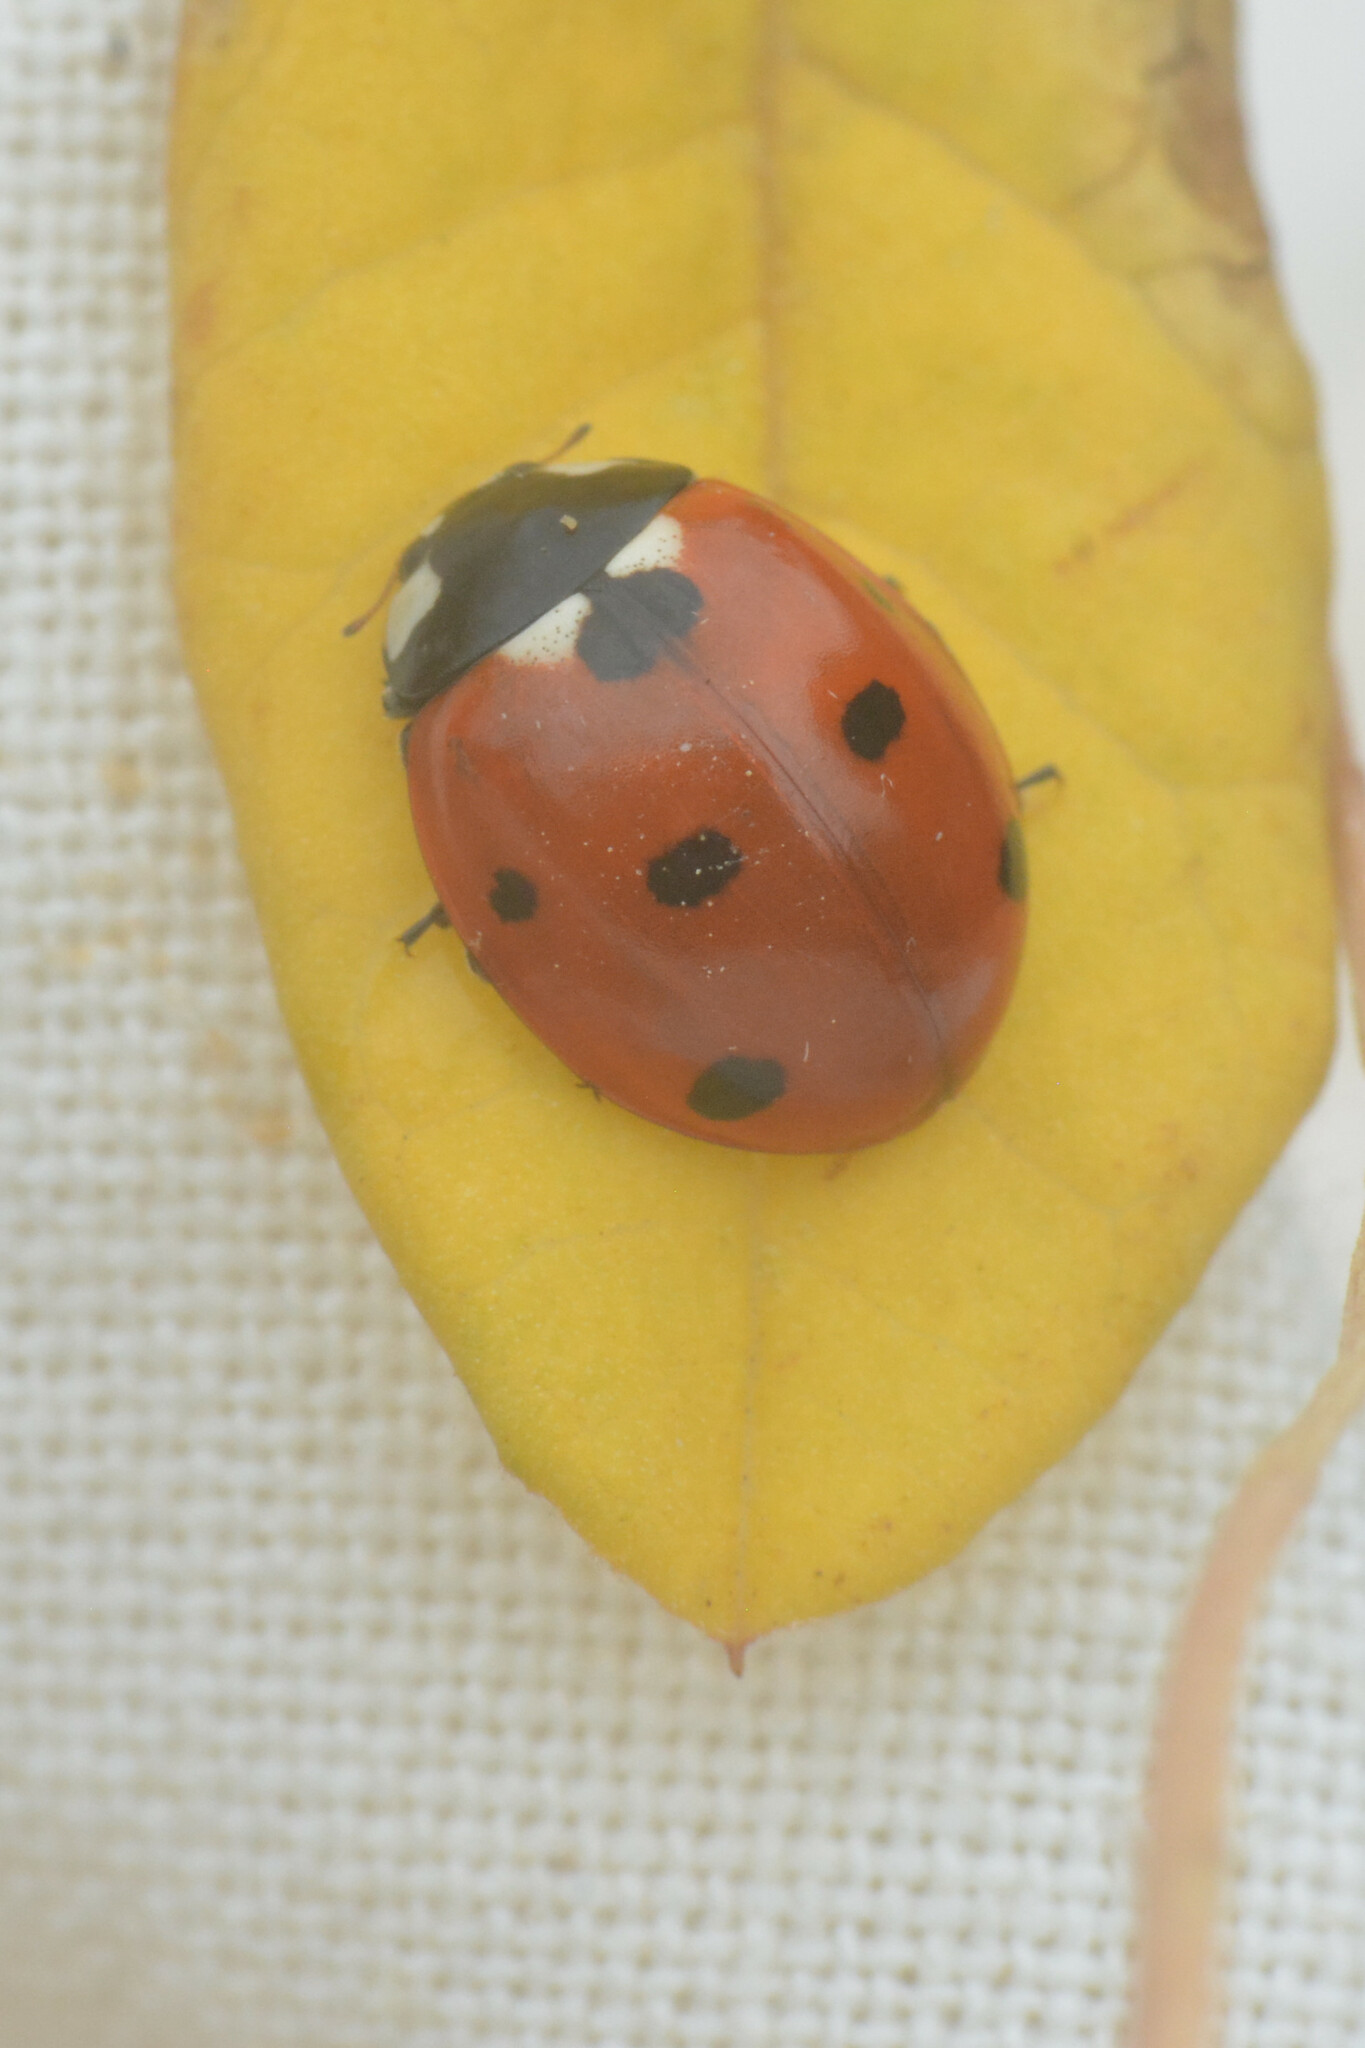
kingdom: Animalia
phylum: Arthropoda
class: Insecta
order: Coleoptera
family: Coccinellidae
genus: Coccinella
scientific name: Coccinella septempunctata
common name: Sevenspotted lady beetle
